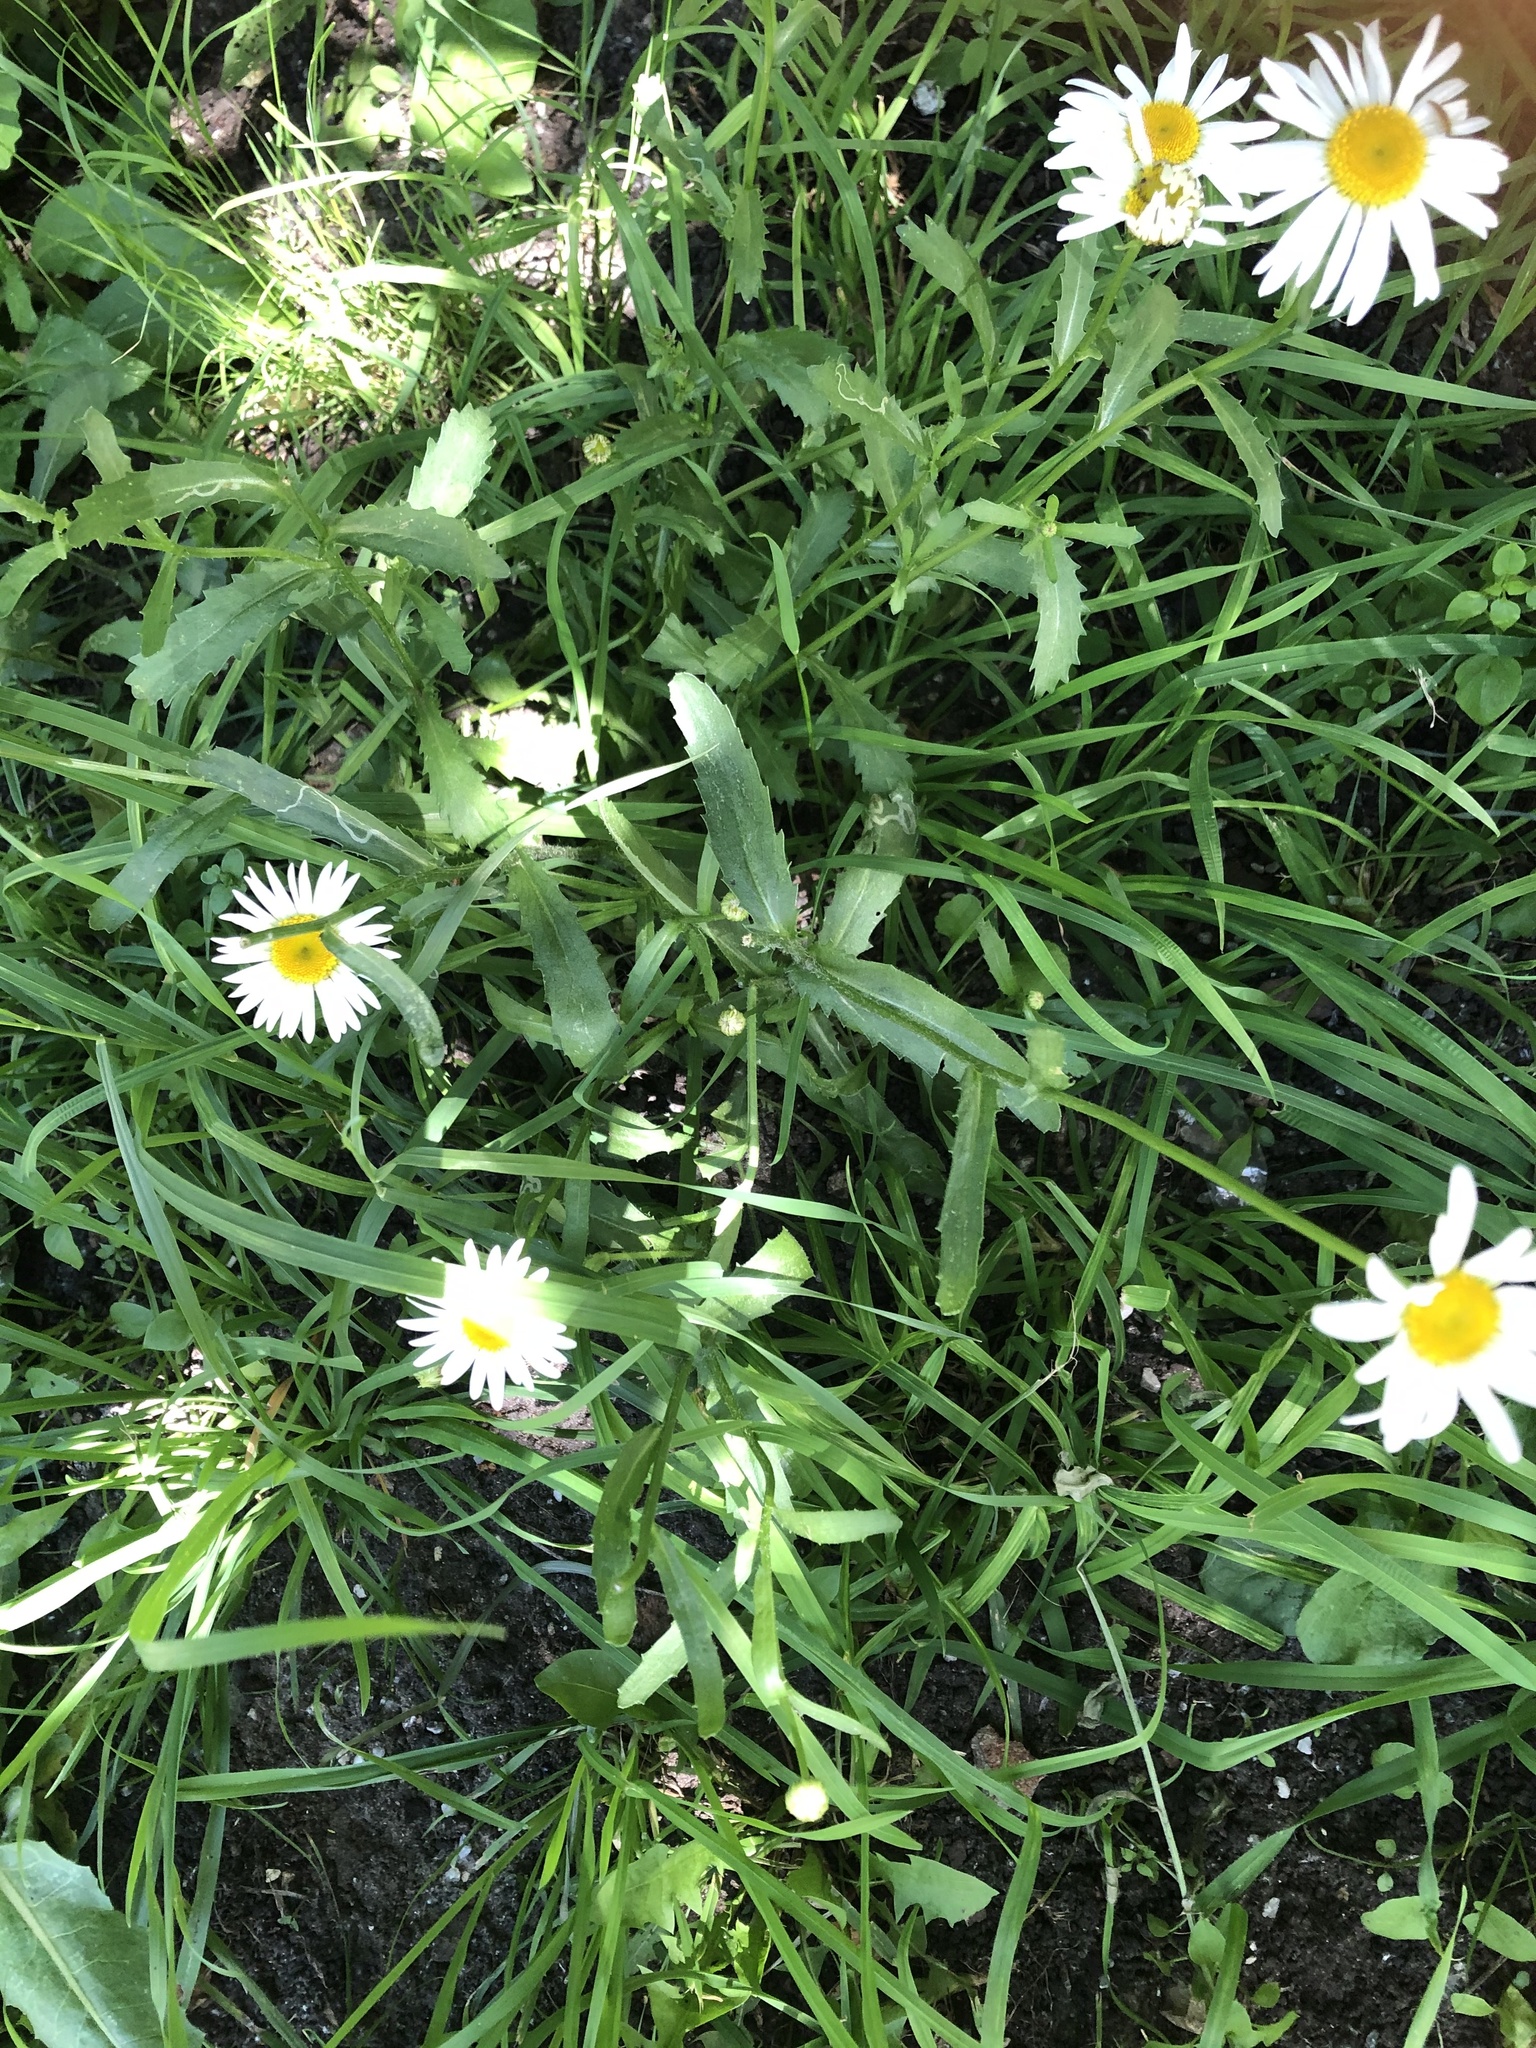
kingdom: Plantae
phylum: Tracheophyta
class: Magnoliopsida
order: Asterales
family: Asteraceae
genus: Leucanthemum
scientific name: Leucanthemum vulgare
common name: Oxeye daisy
